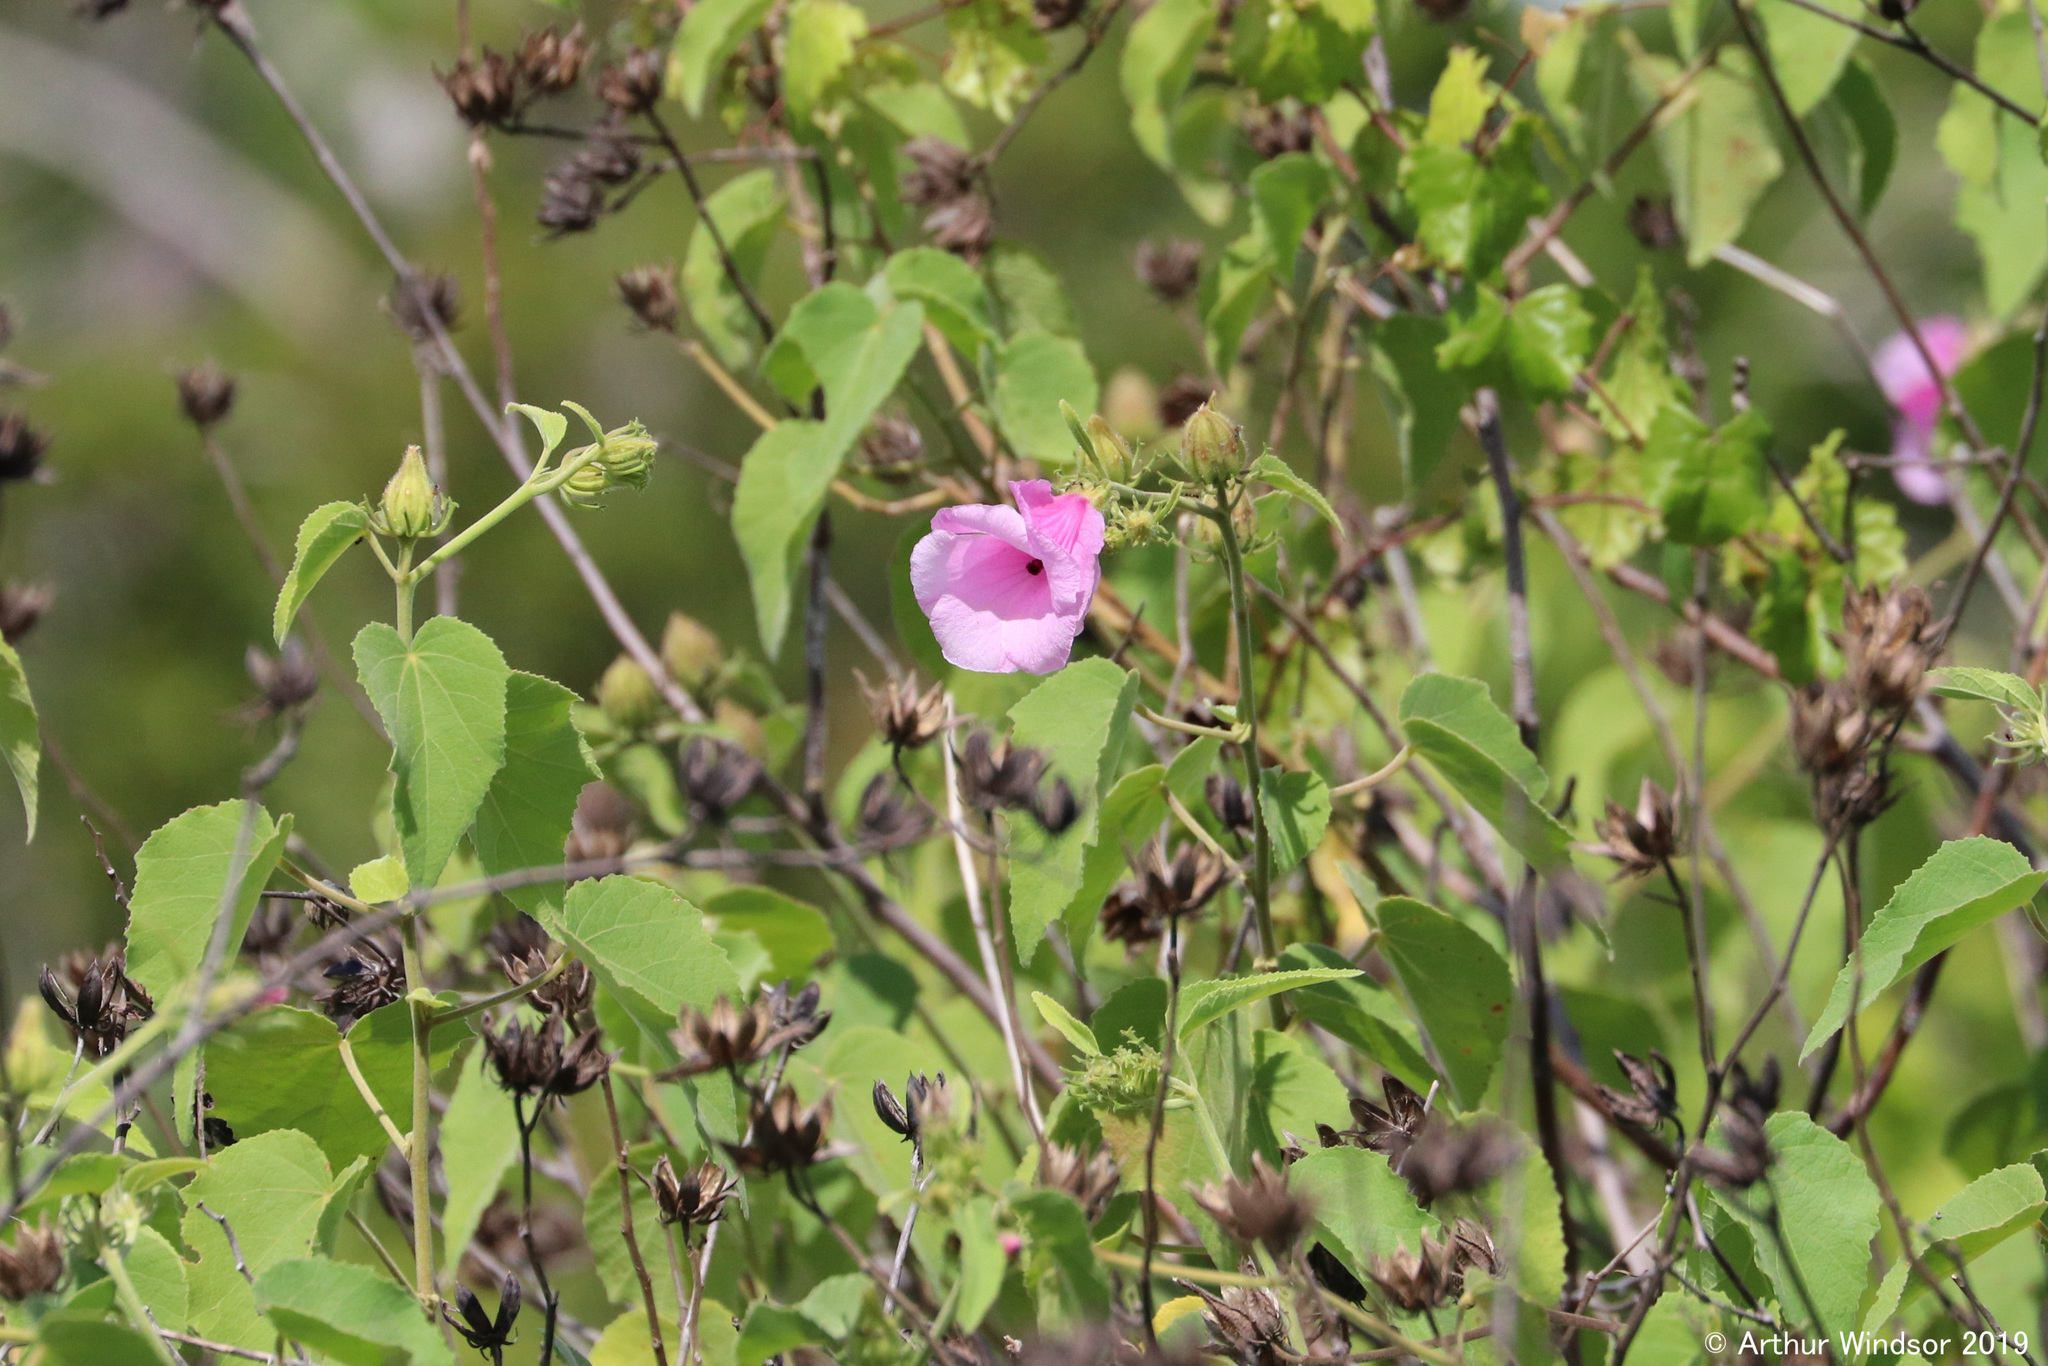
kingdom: Plantae
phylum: Tracheophyta
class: Magnoliopsida
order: Malvales
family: Malvaceae
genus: Hibiscus
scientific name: Hibiscus furcellatus
